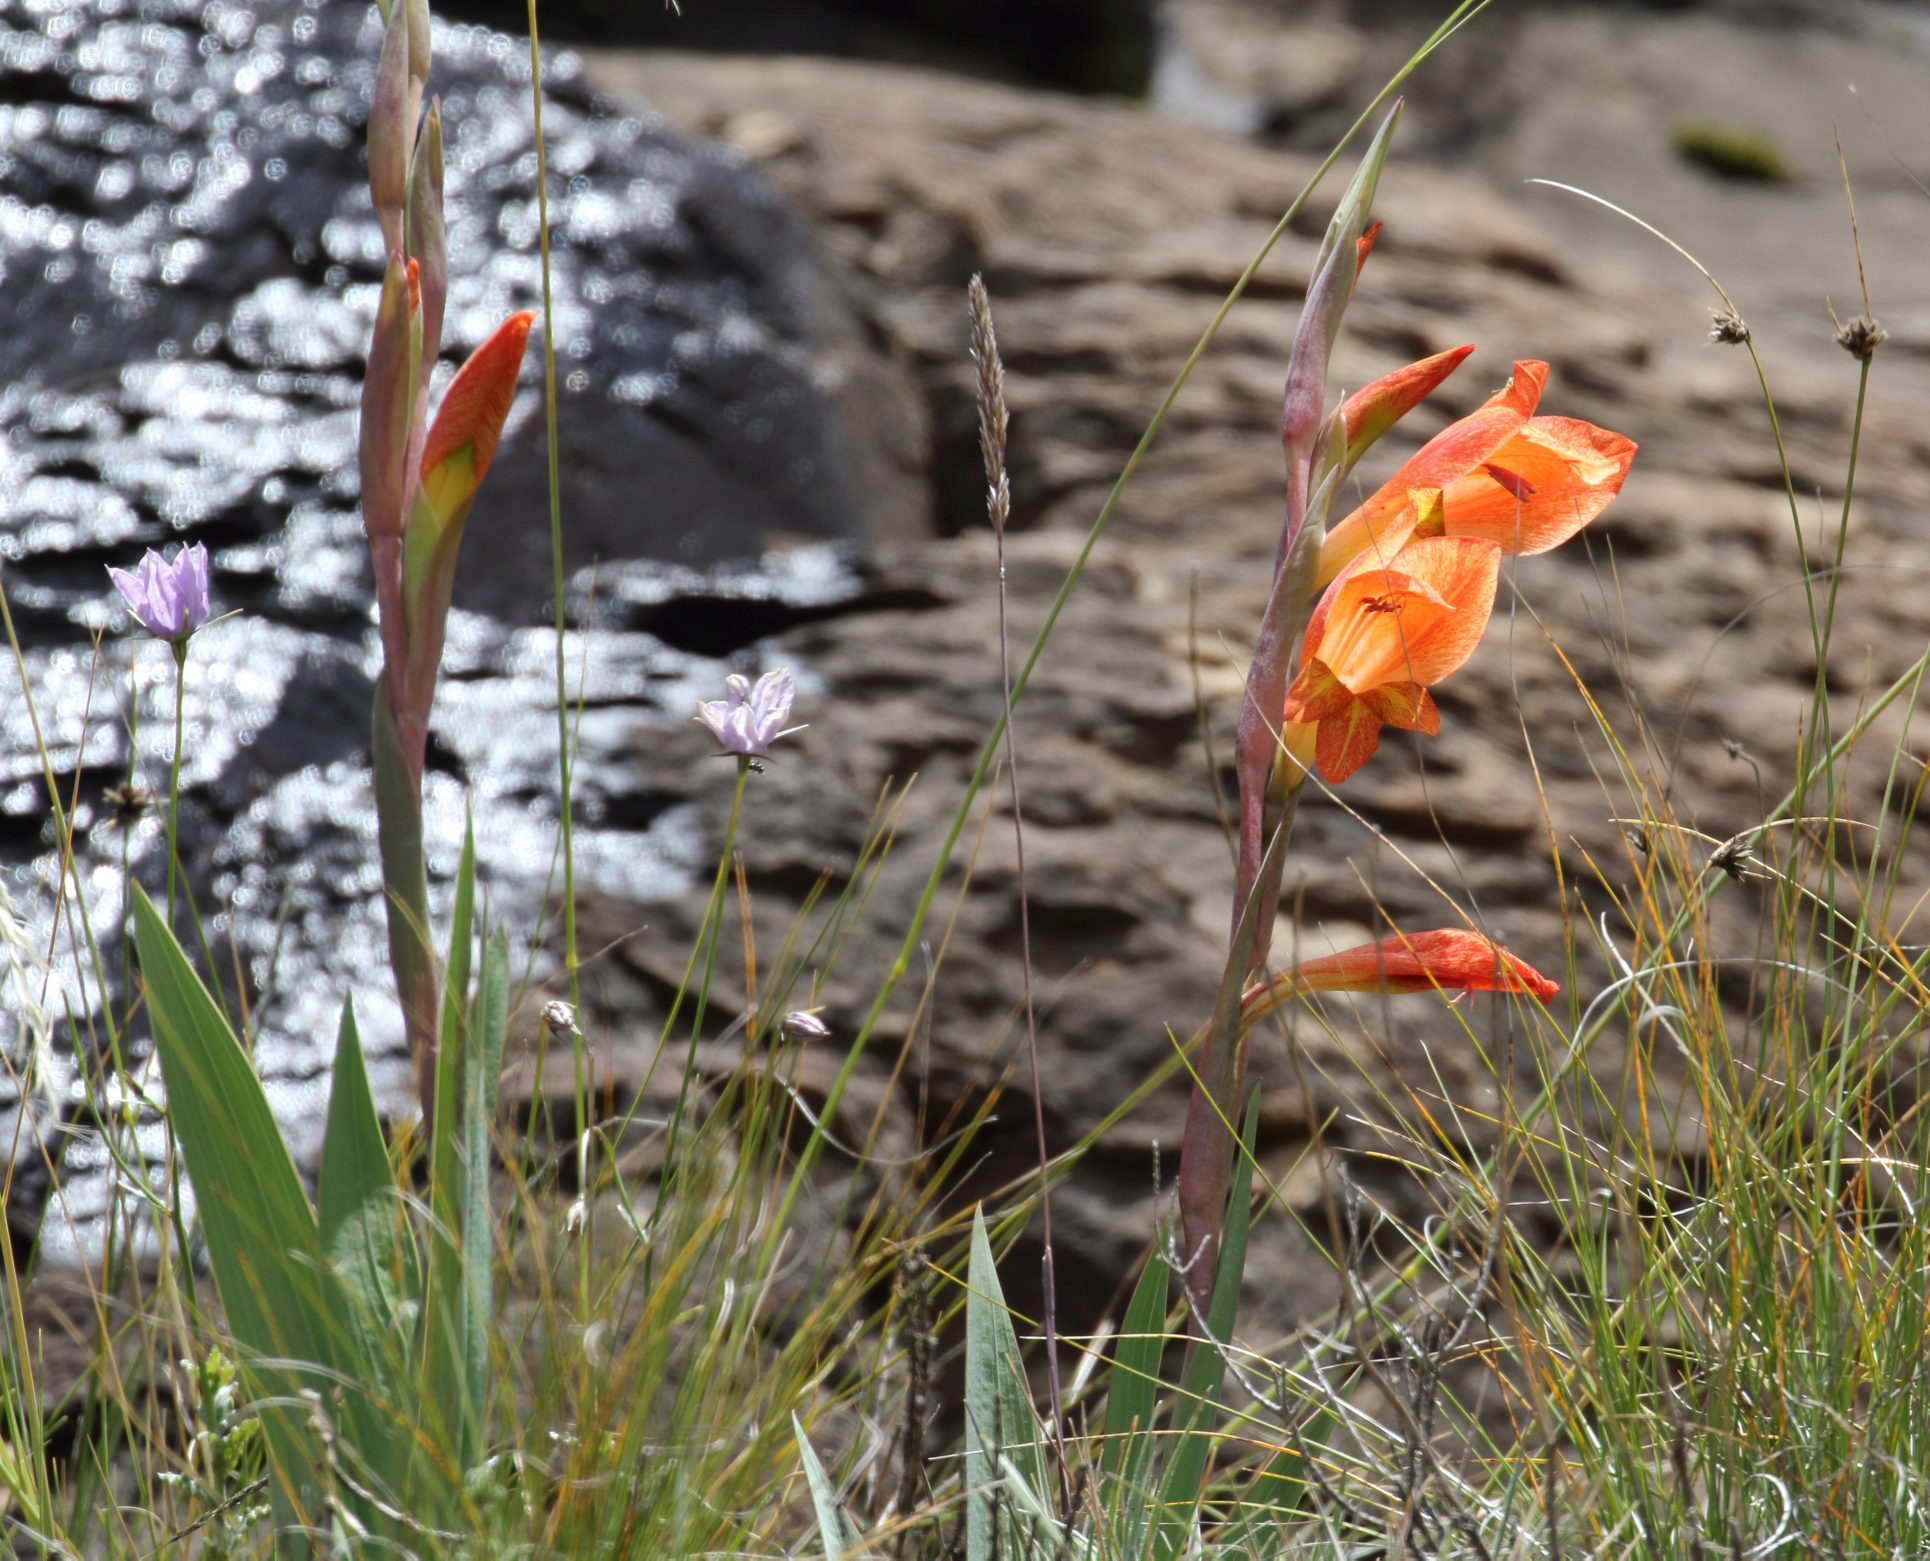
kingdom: Plantae
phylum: Tracheophyta
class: Liliopsida
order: Asparagales
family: Iridaceae
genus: Gladiolus
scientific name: Gladiolus dalenii
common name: Cornflag
